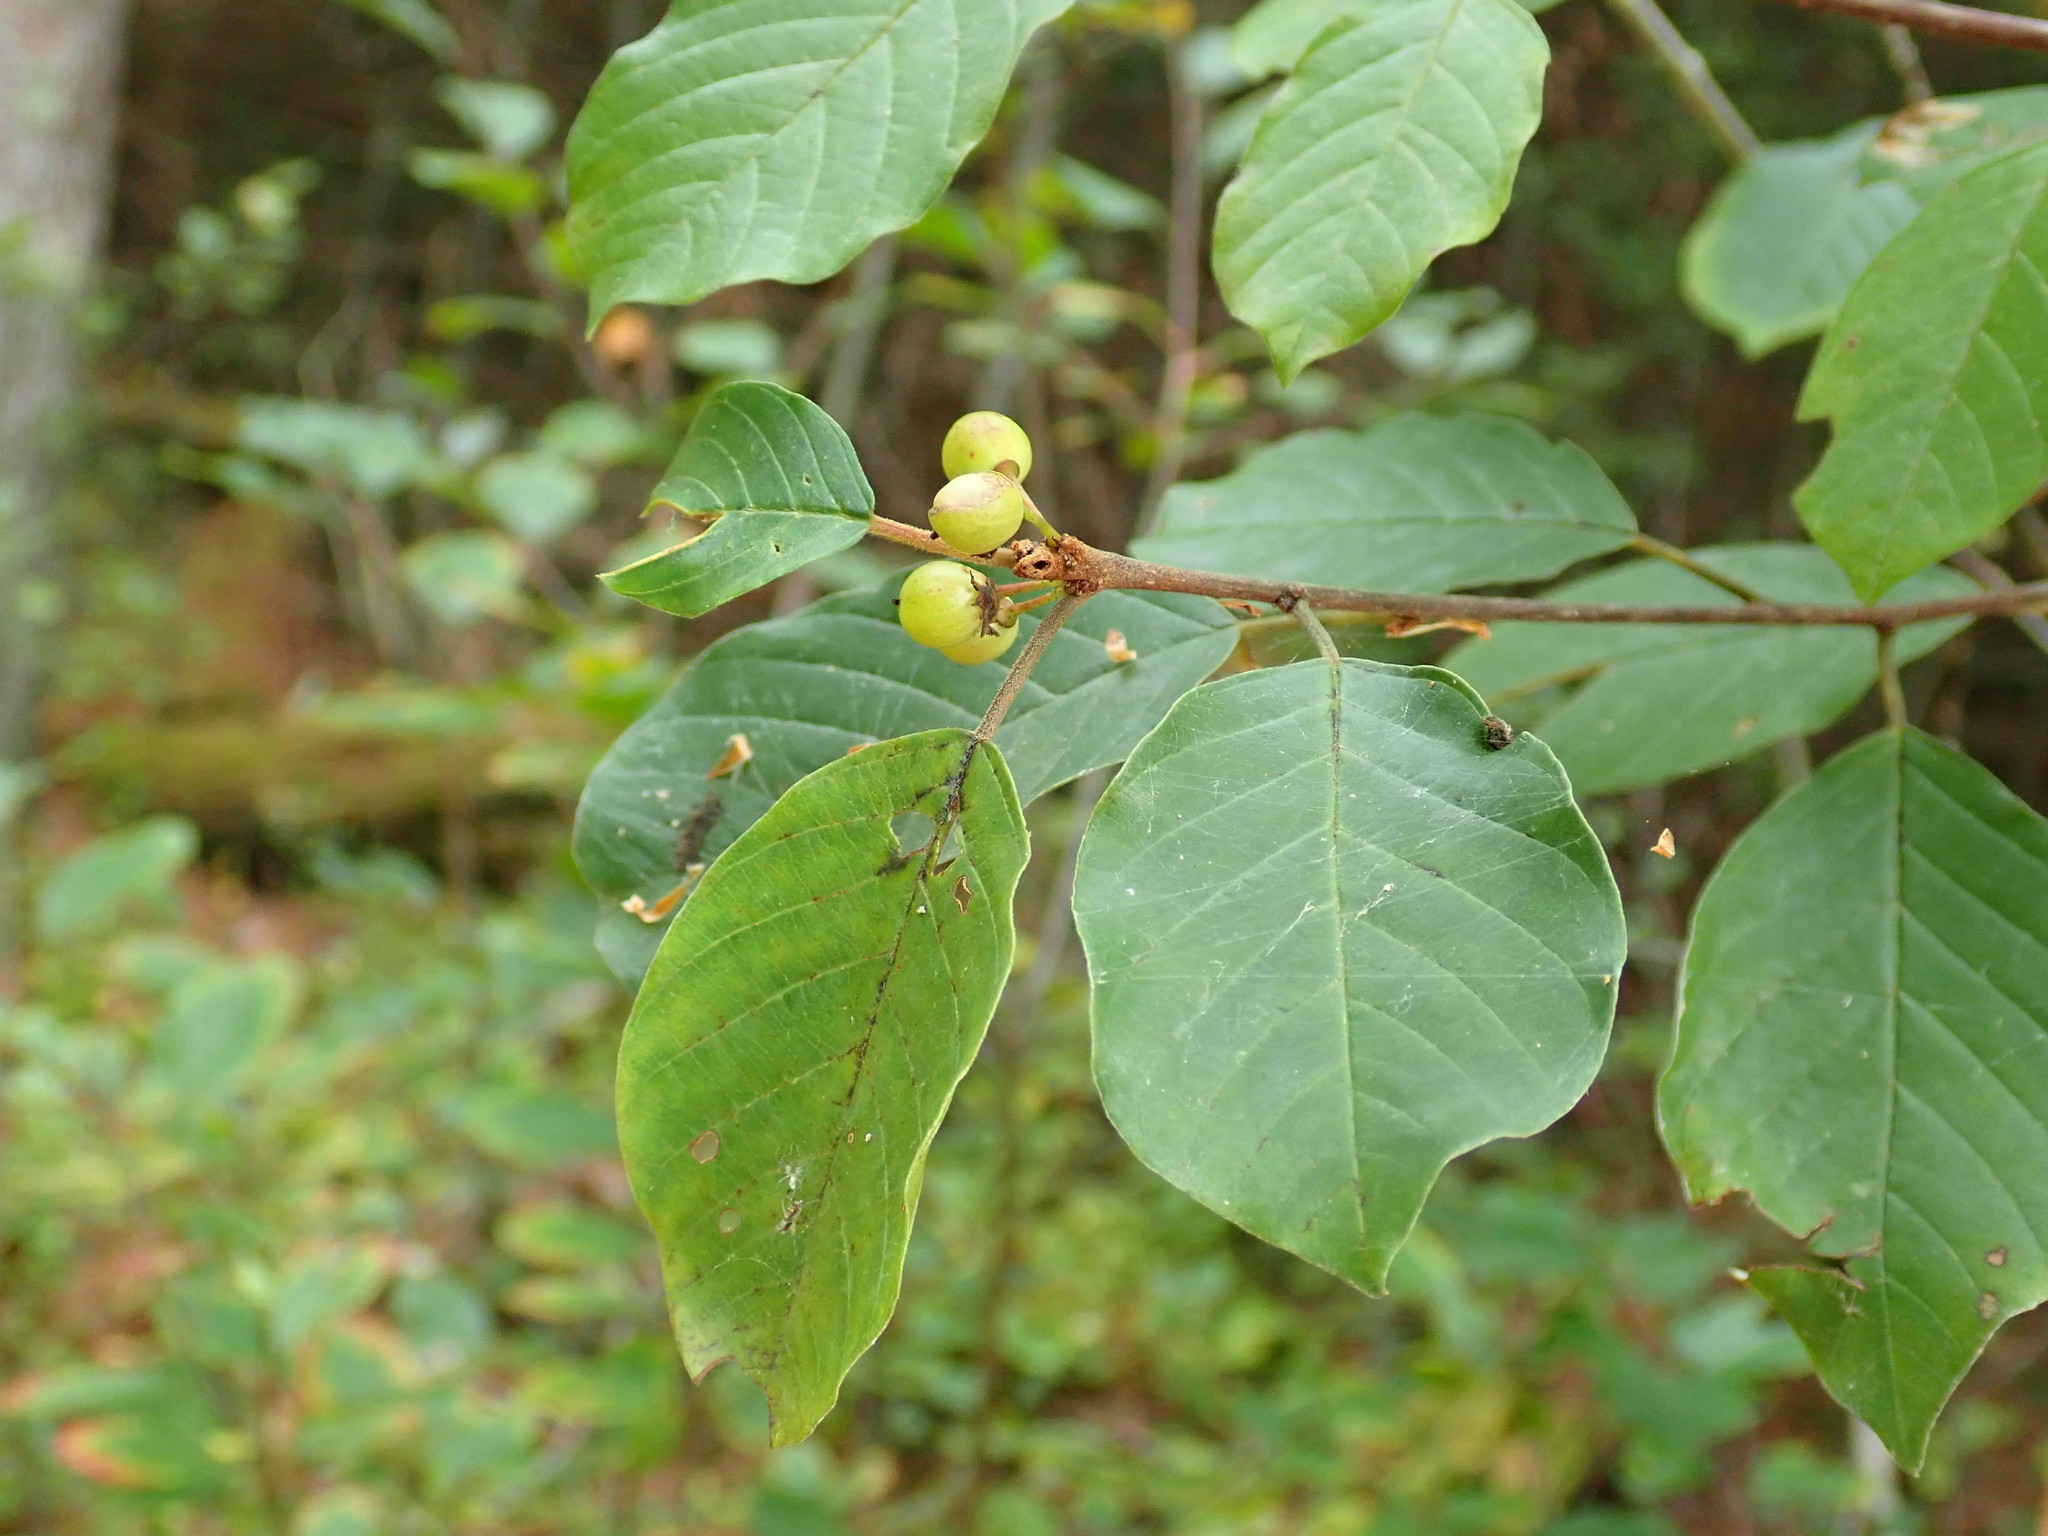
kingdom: Plantae
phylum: Tracheophyta
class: Magnoliopsida
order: Rosales
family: Rhamnaceae
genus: Frangula
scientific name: Frangula alnus
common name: Alder buckthorn
